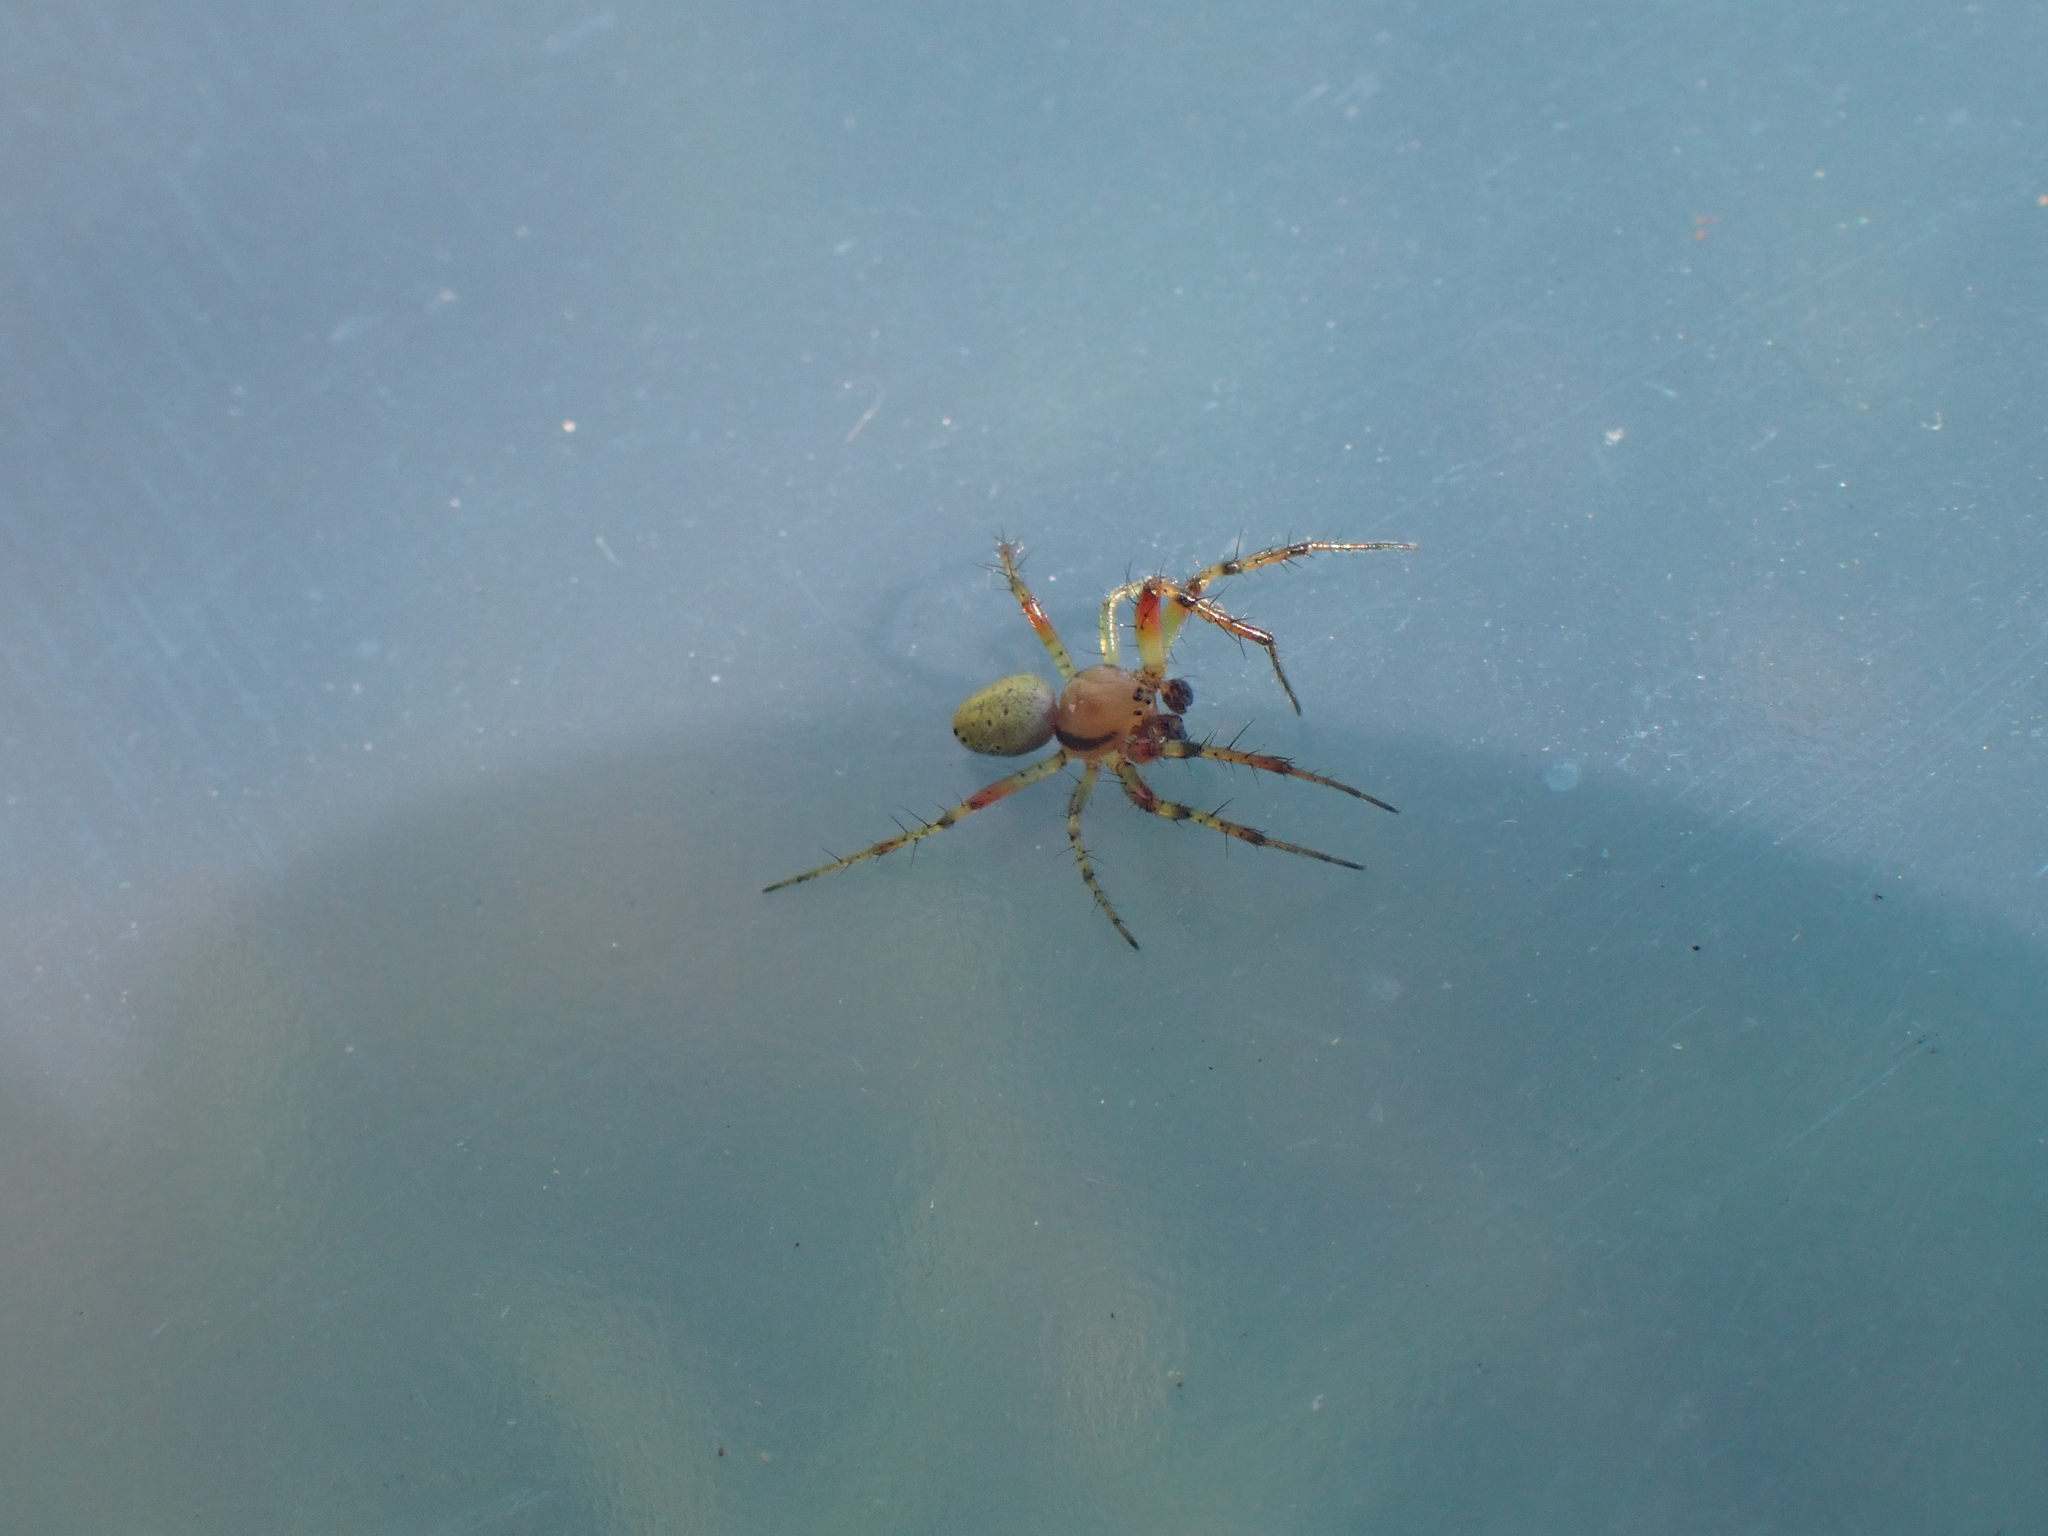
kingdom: Animalia
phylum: Arthropoda
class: Arachnida
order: Araneae
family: Araneidae
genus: Araniella
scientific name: Araniella
